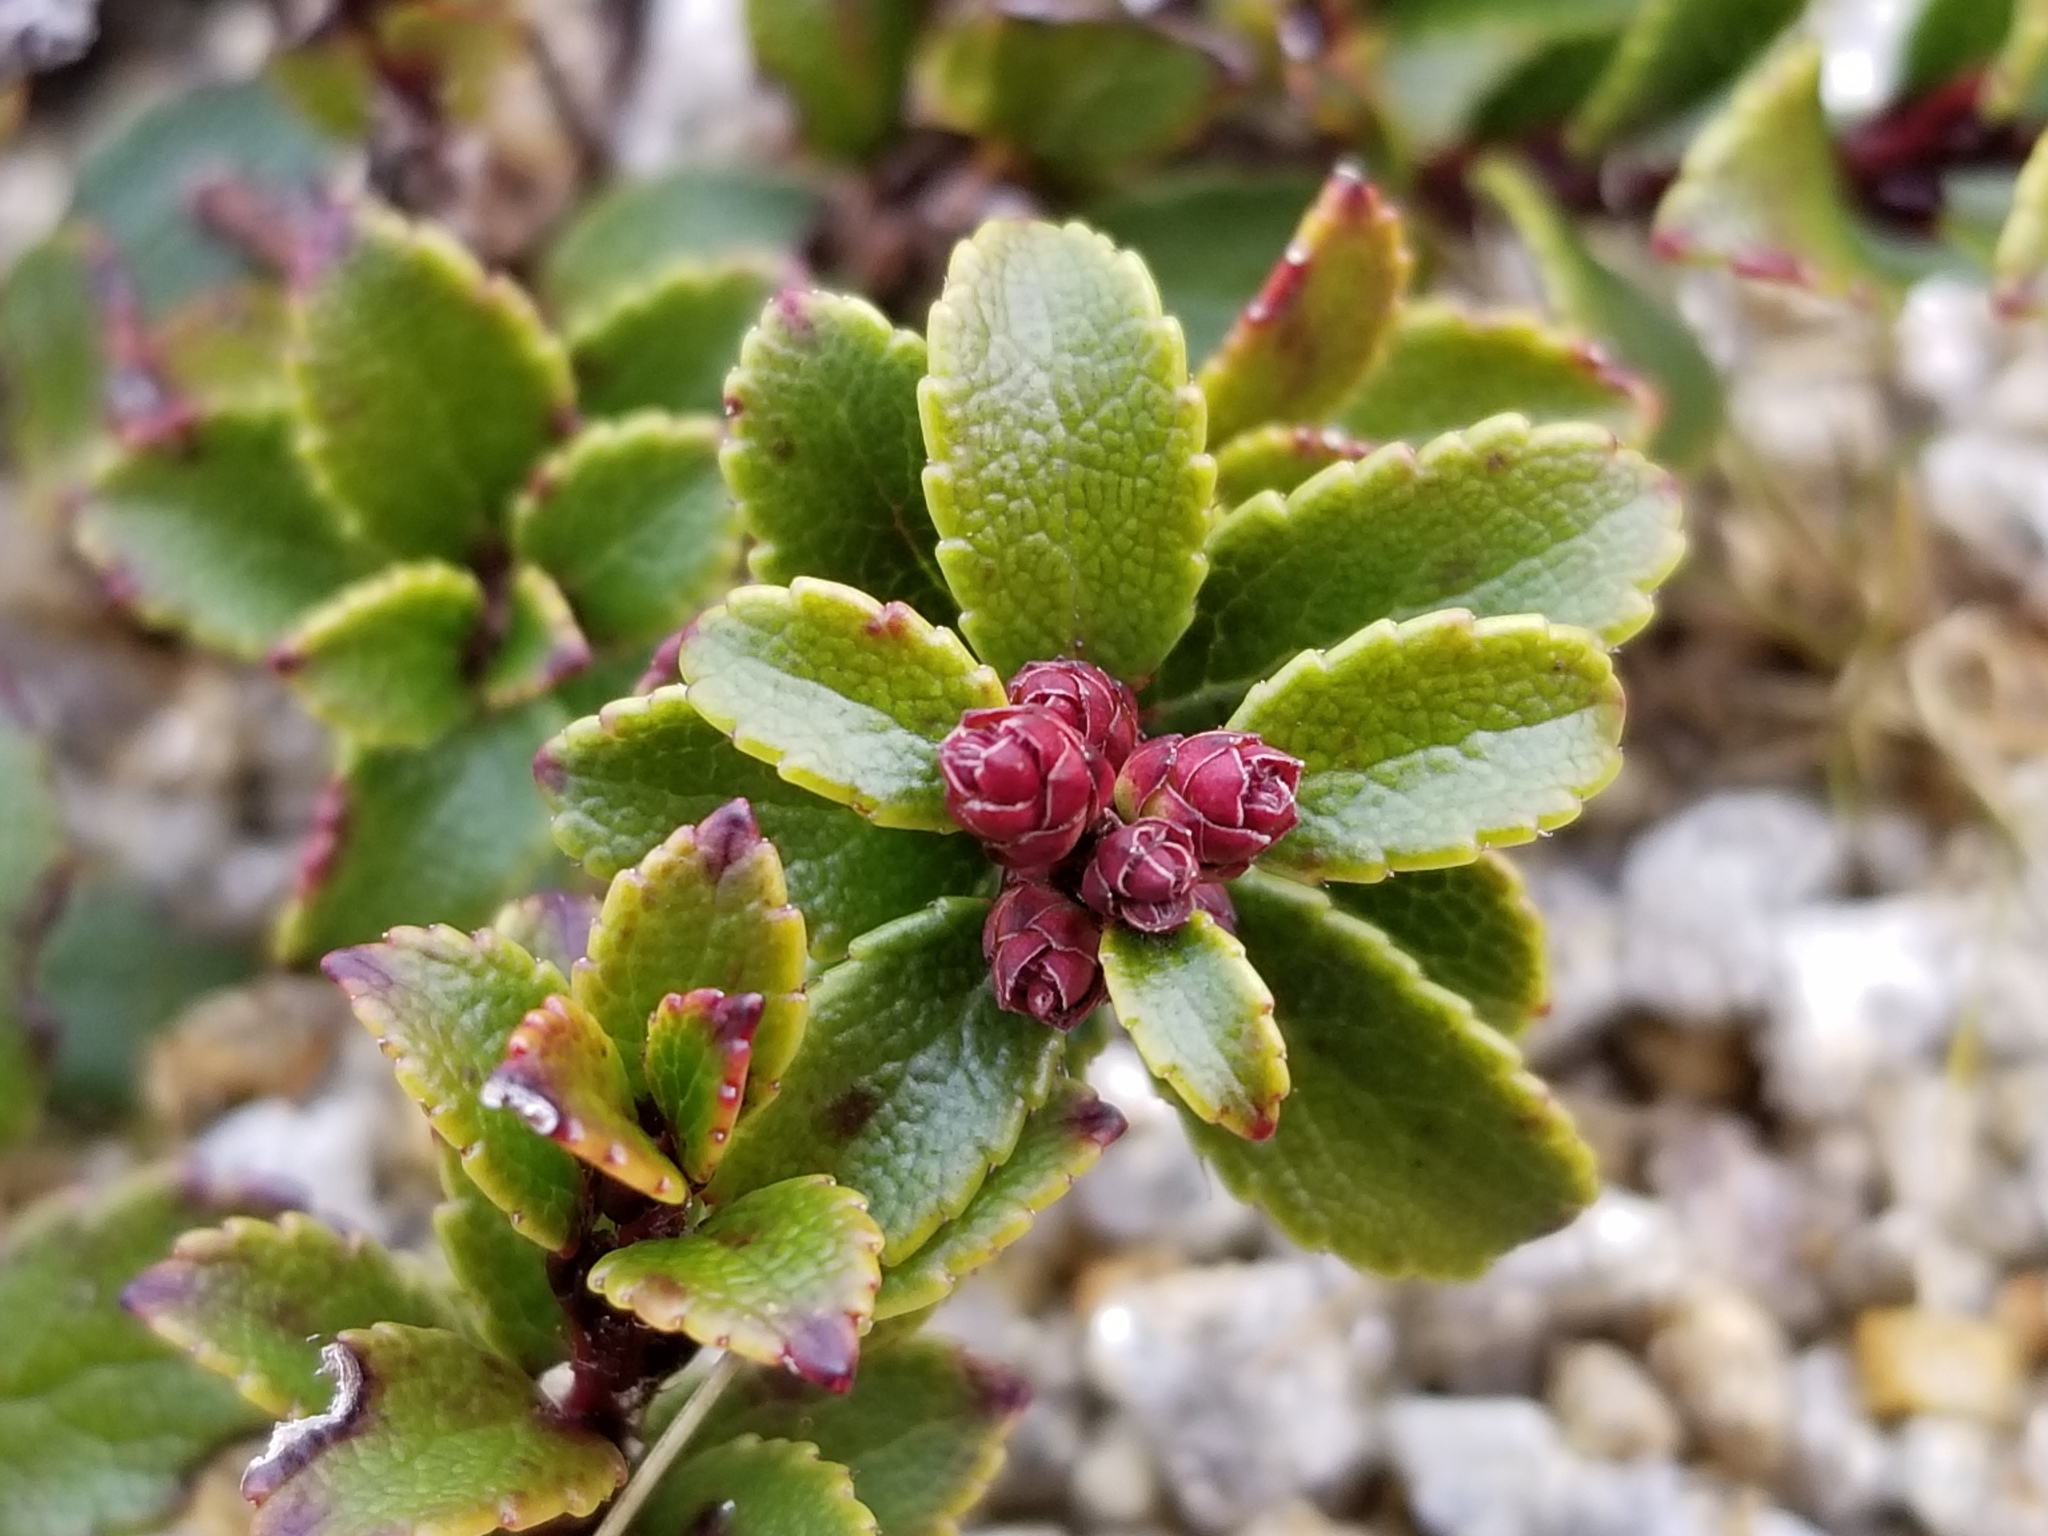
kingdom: Plantae
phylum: Tracheophyta
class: Magnoliopsida
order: Ericales
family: Ericaceae
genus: Gaultheria
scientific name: Gaultheria crassa
